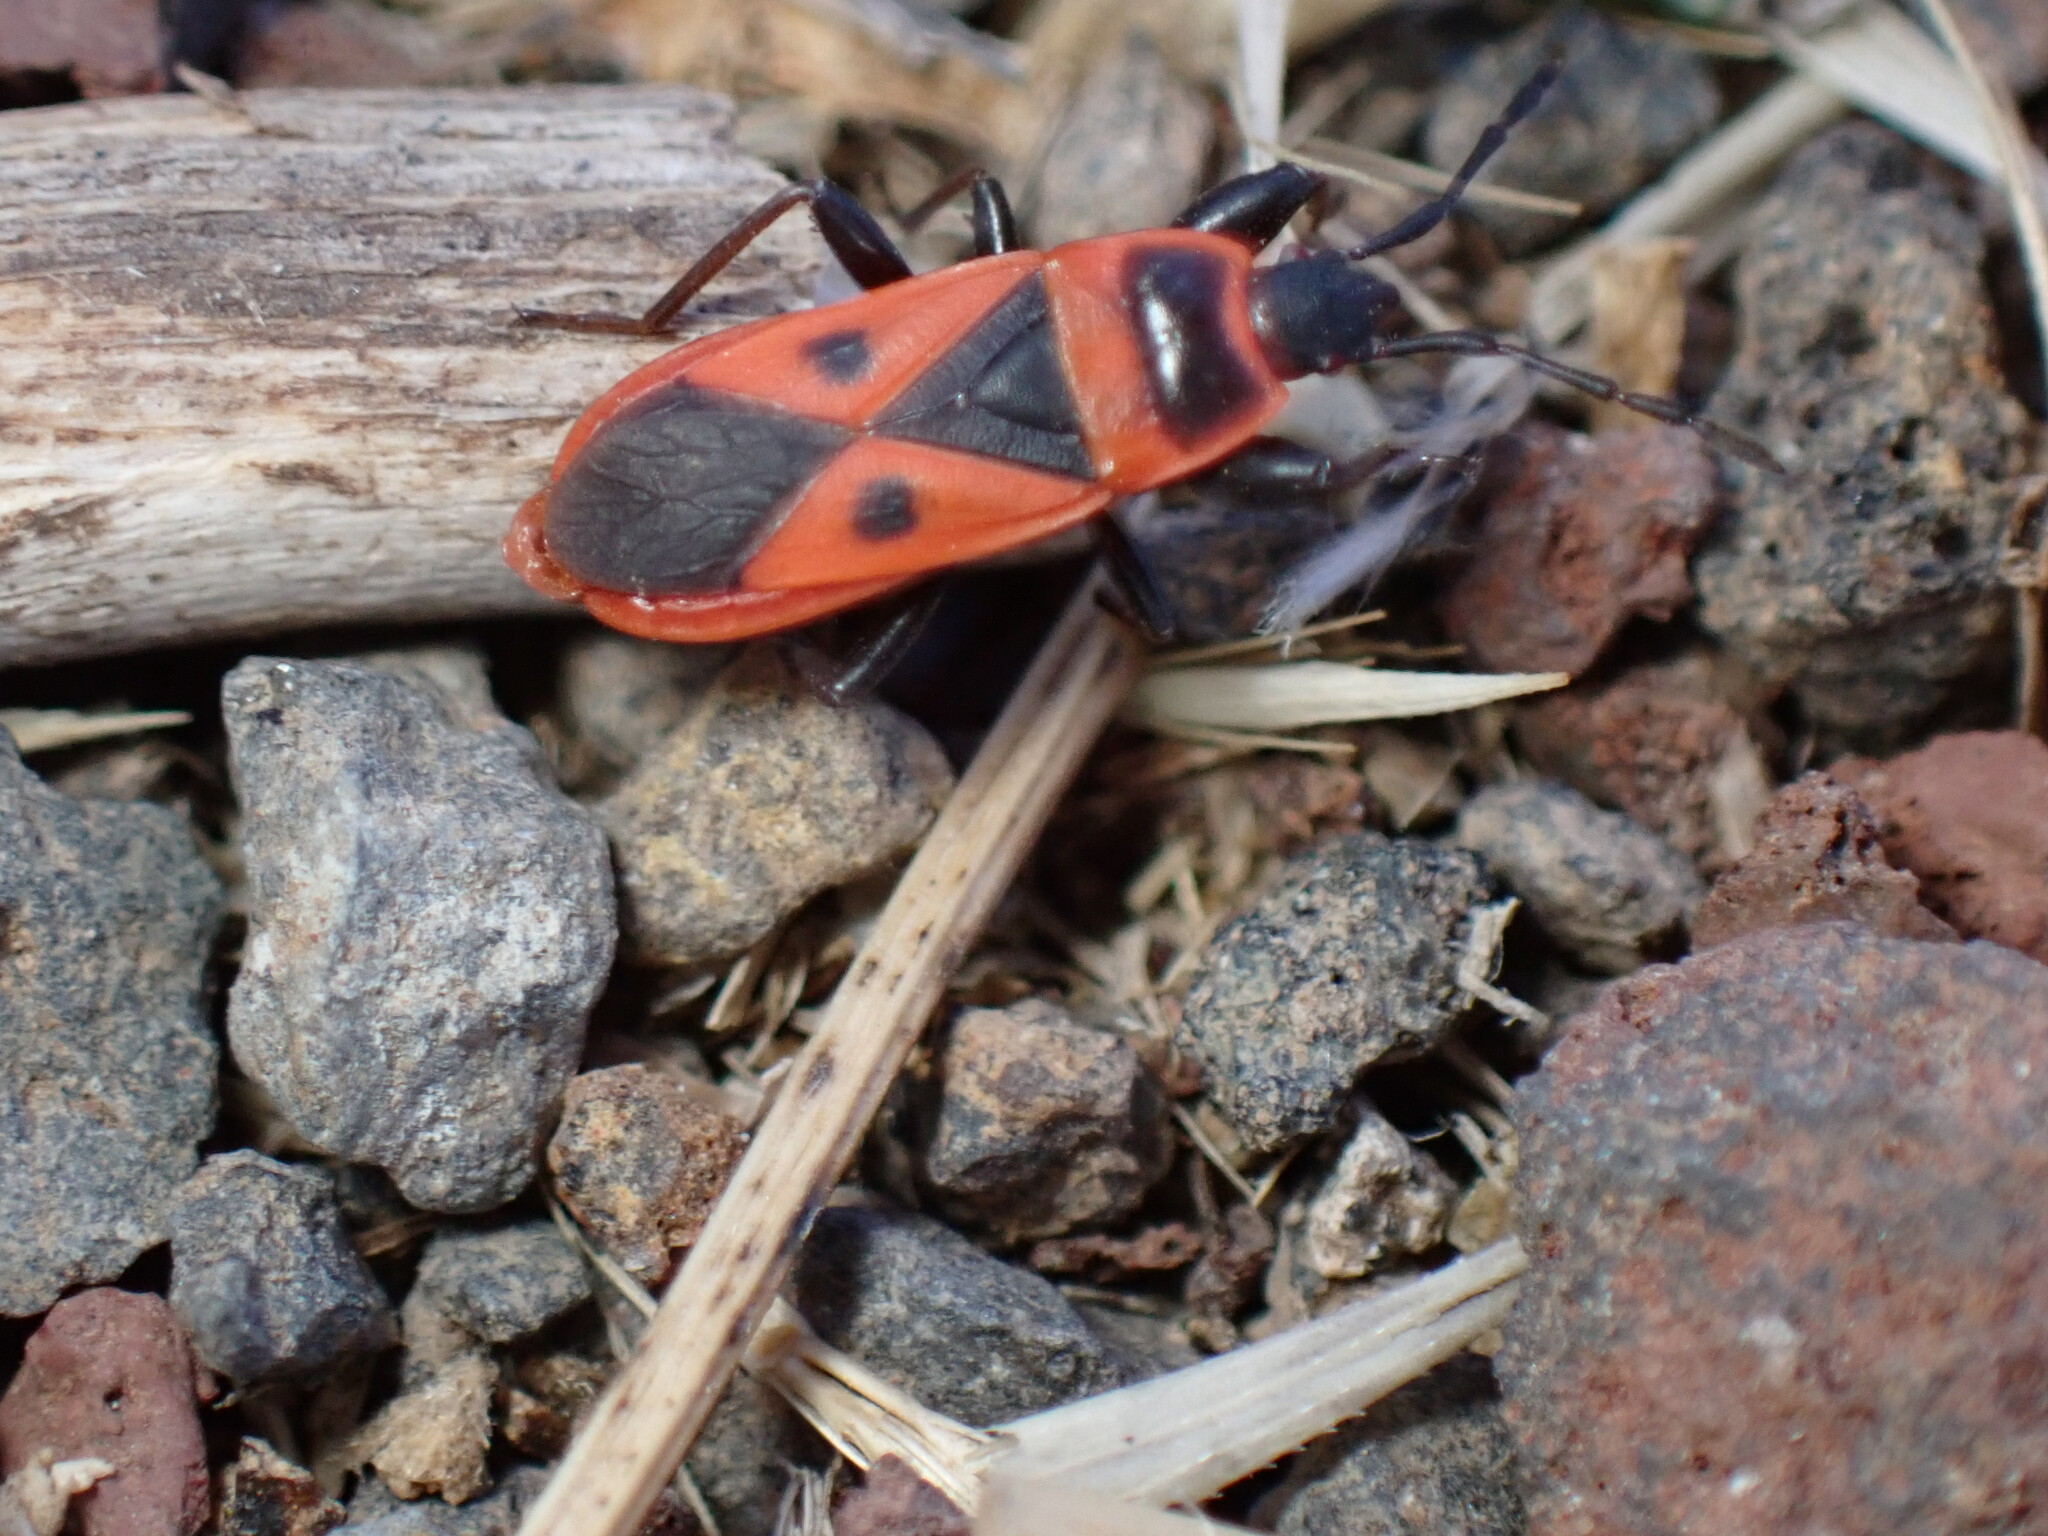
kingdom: Animalia
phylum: Arthropoda
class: Insecta
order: Hemiptera
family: Pyrrhocoridae
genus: Scantius
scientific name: Scantius aegyptius
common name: Red bug
